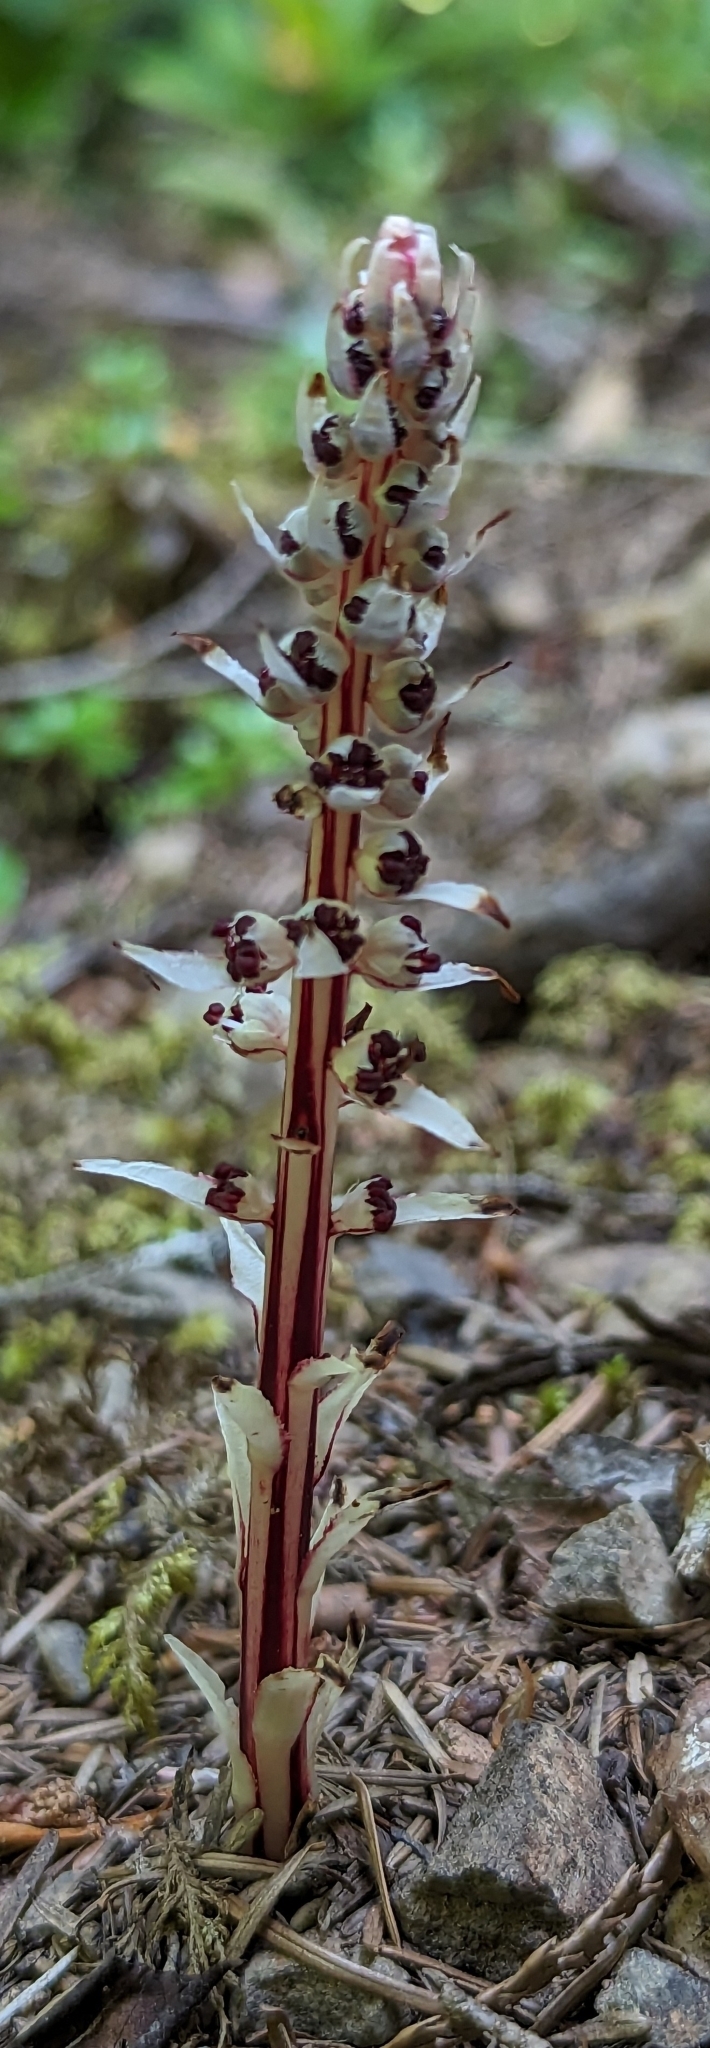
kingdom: Plantae
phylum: Tracheophyta
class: Magnoliopsida
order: Ericales
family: Ericaceae
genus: Allotropa
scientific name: Allotropa virgata
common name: Candy-striped allotropa
